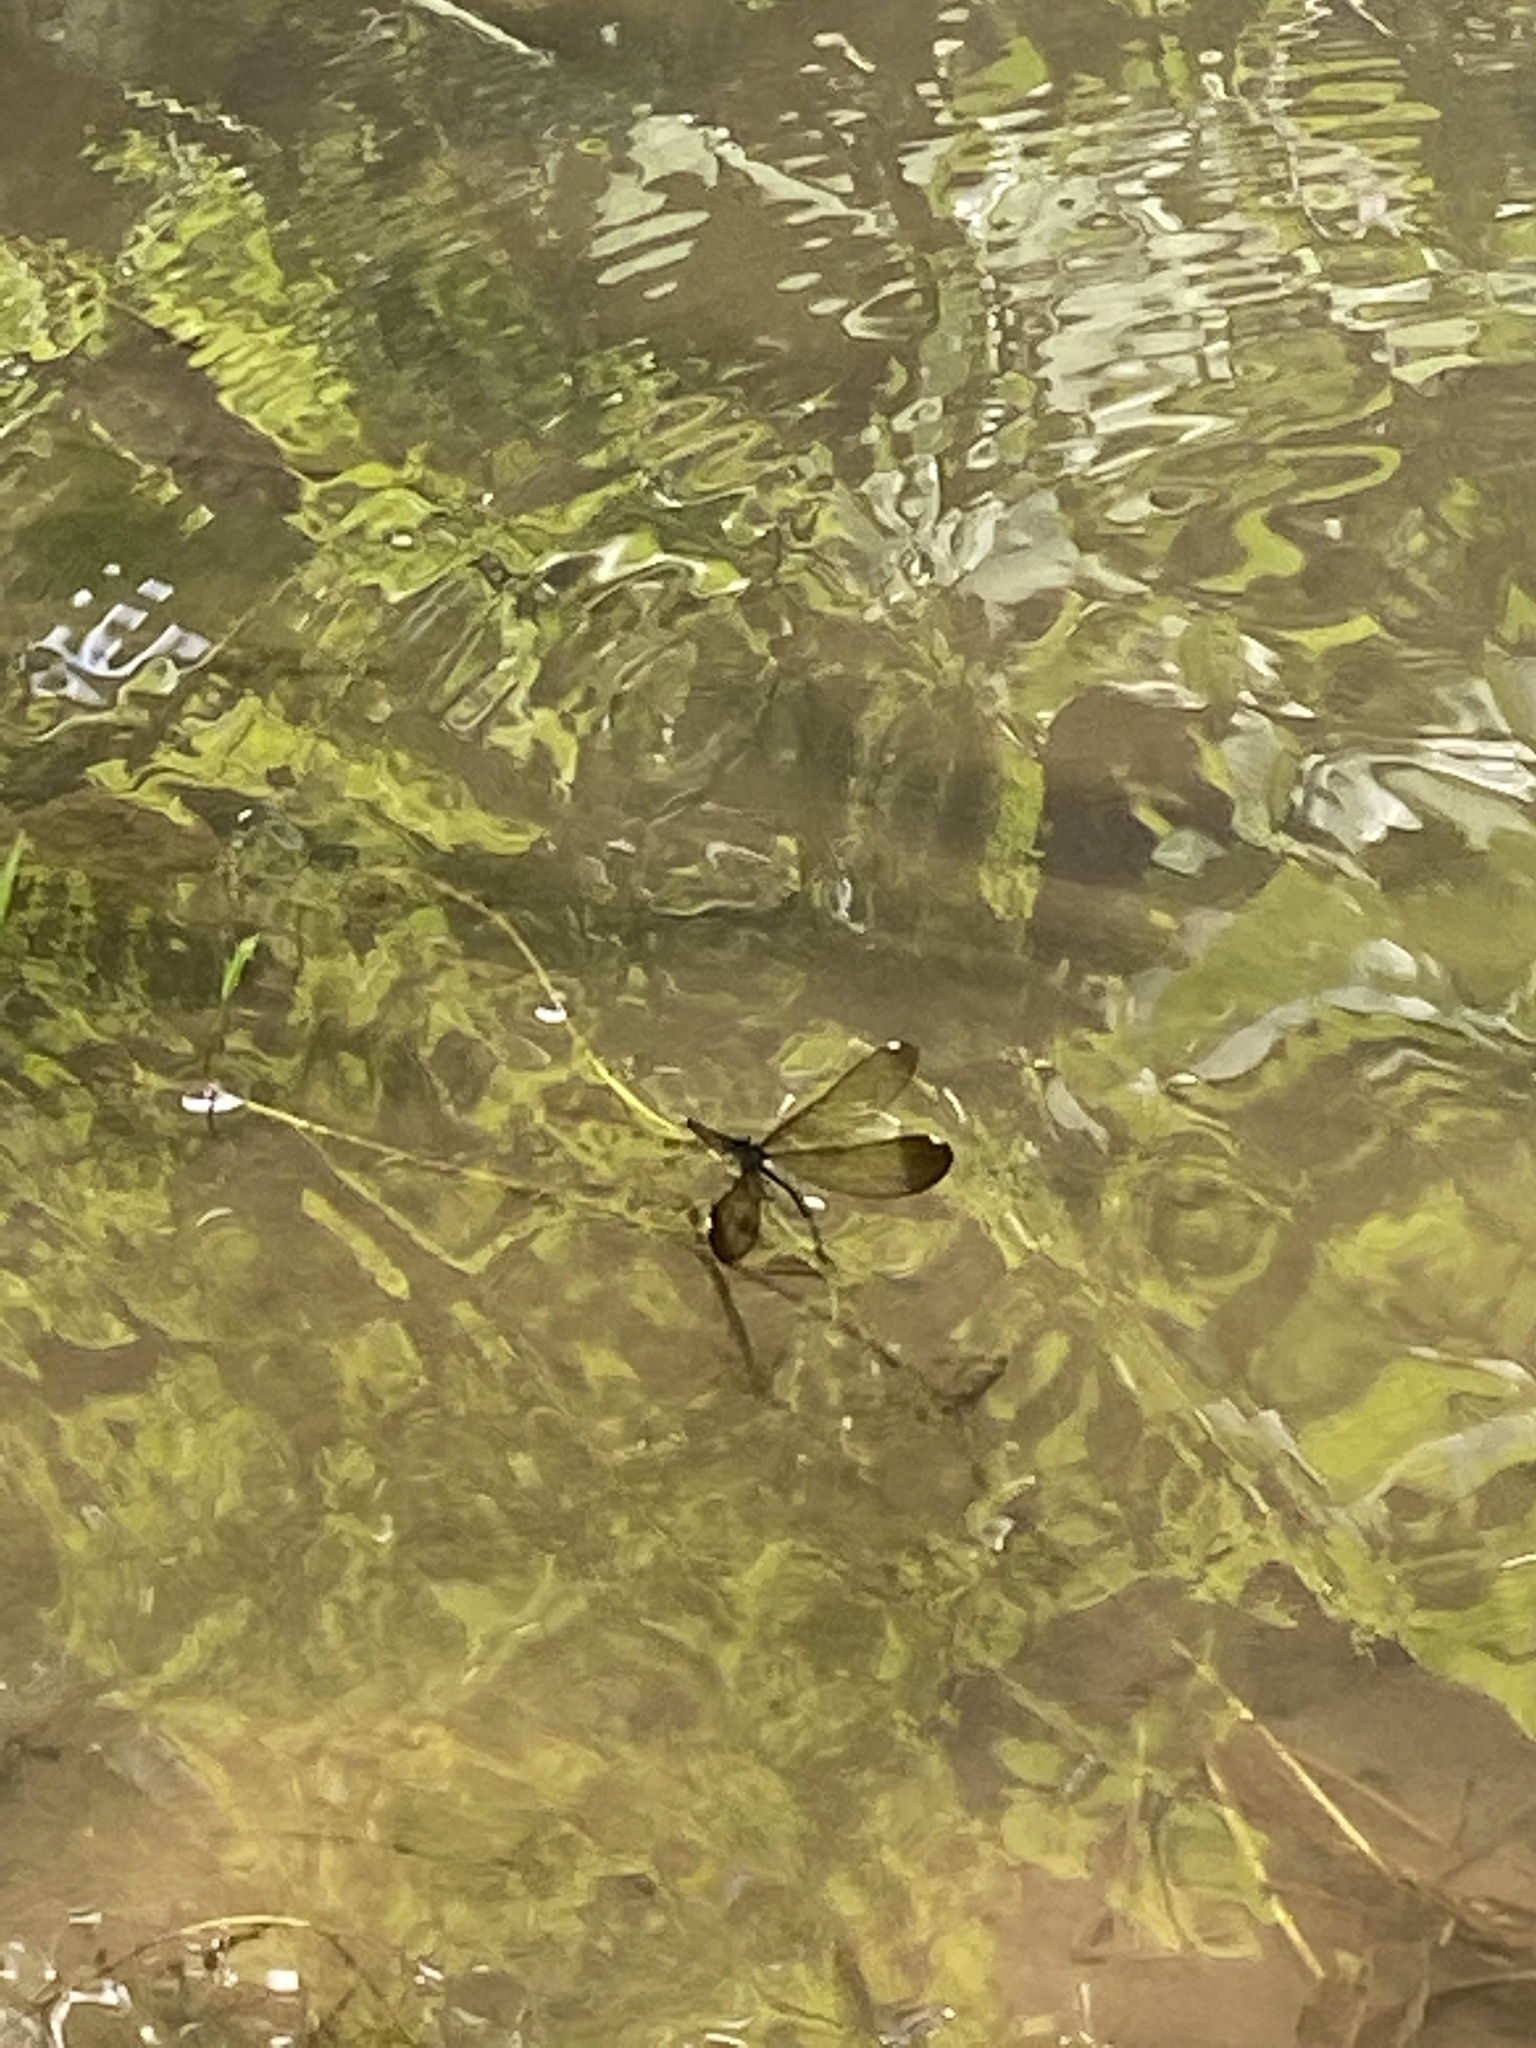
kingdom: Animalia
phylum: Arthropoda
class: Insecta
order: Odonata
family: Calopterygidae
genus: Calopteryx
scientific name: Calopteryx maculata
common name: Ebony jewelwing
